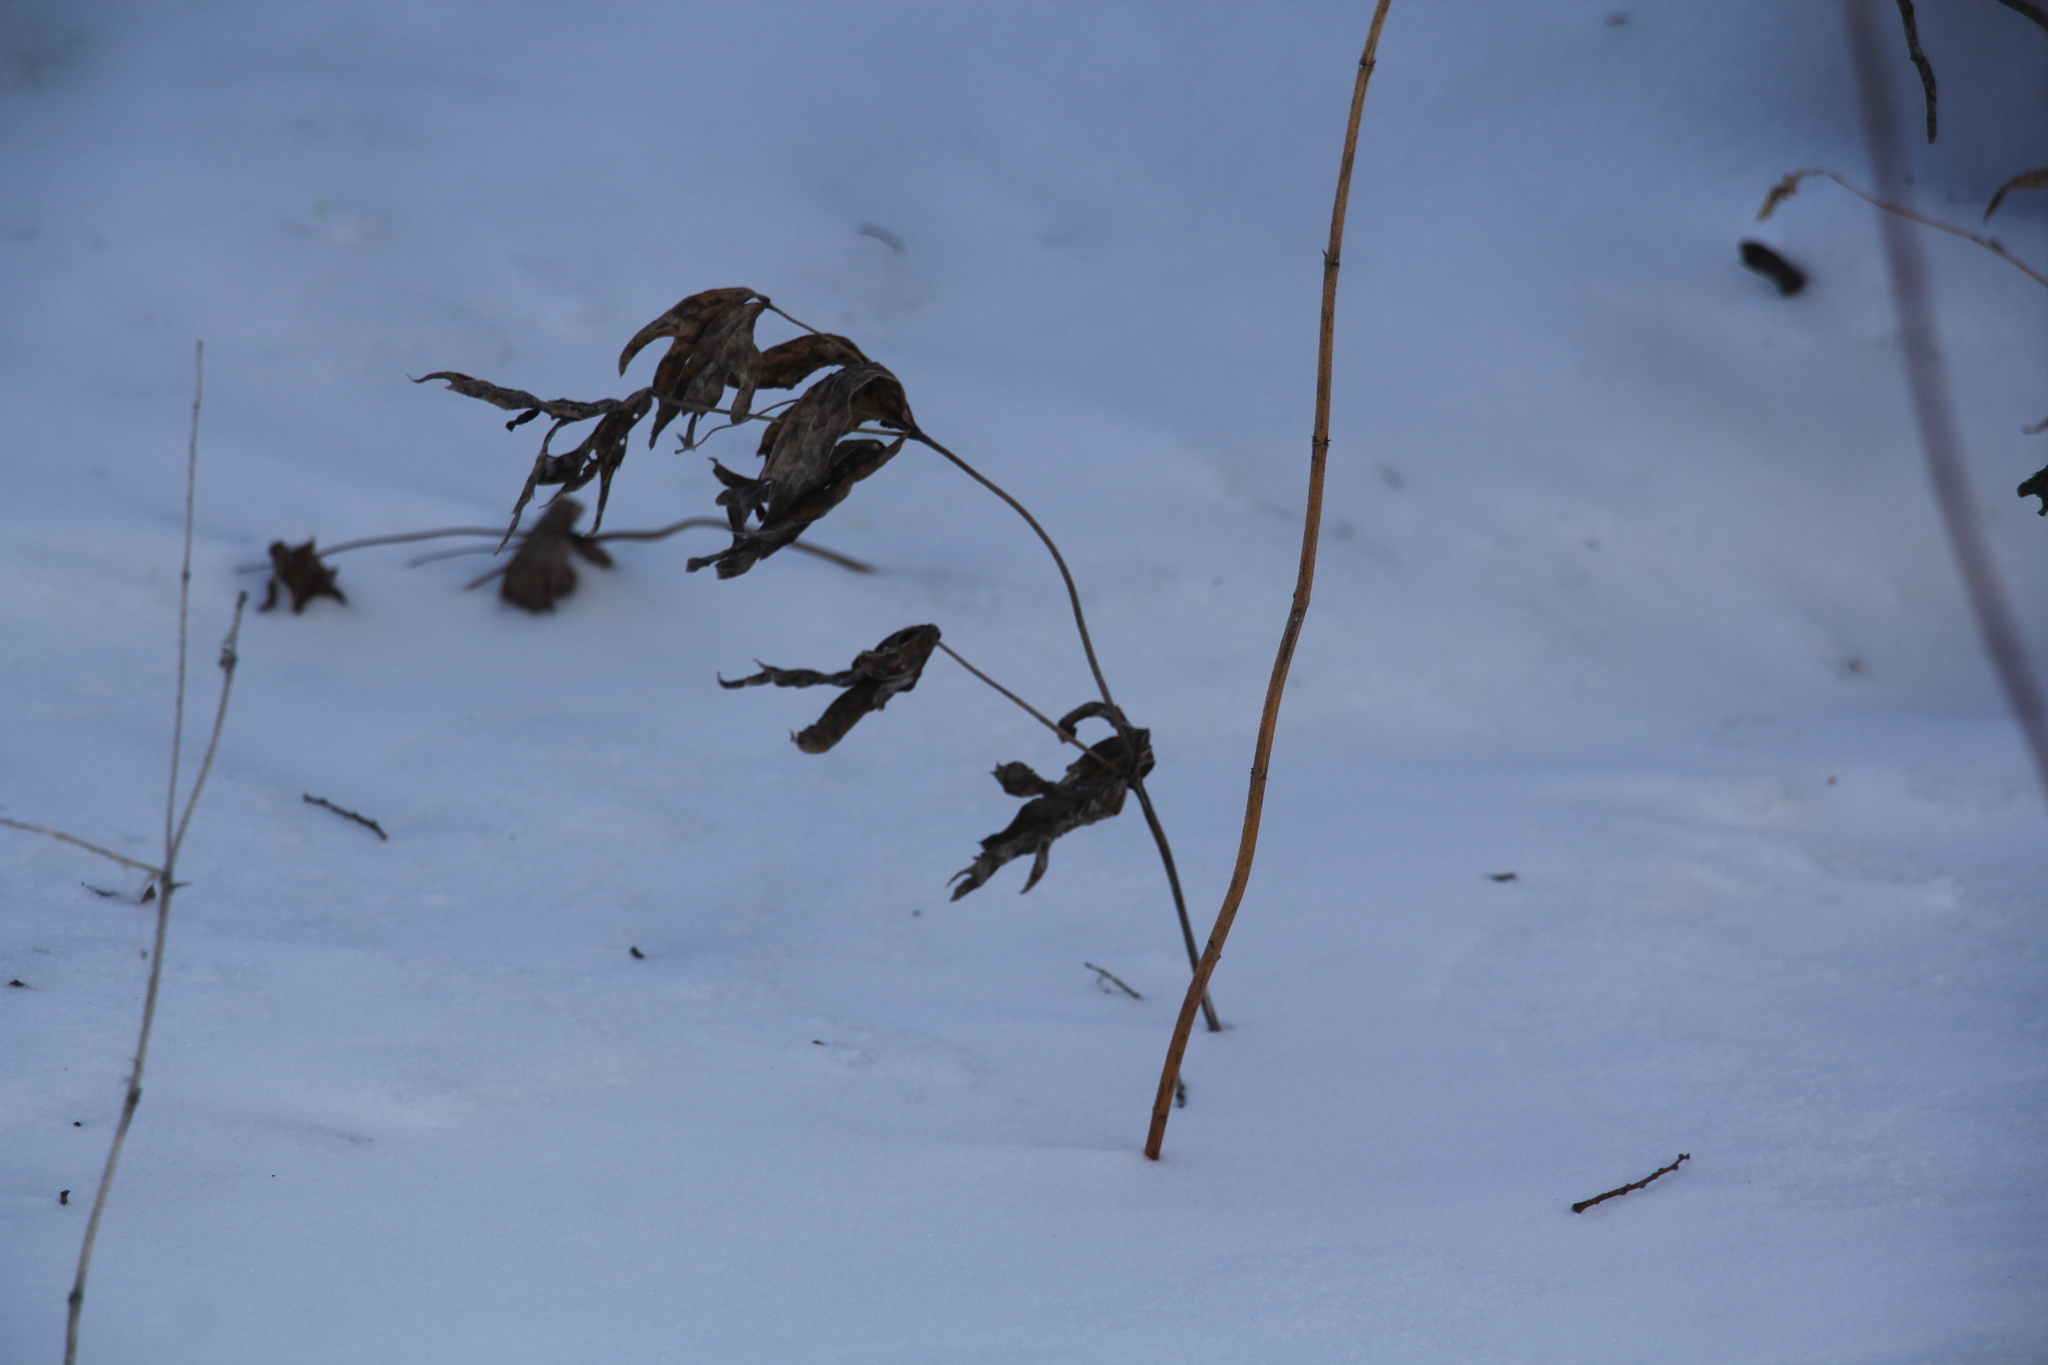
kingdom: Plantae
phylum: Tracheophyta
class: Magnoliopsida
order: Ranunculales
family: Ranunculaceae
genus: Anemonastrum
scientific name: Anemonastrum dichotomum
